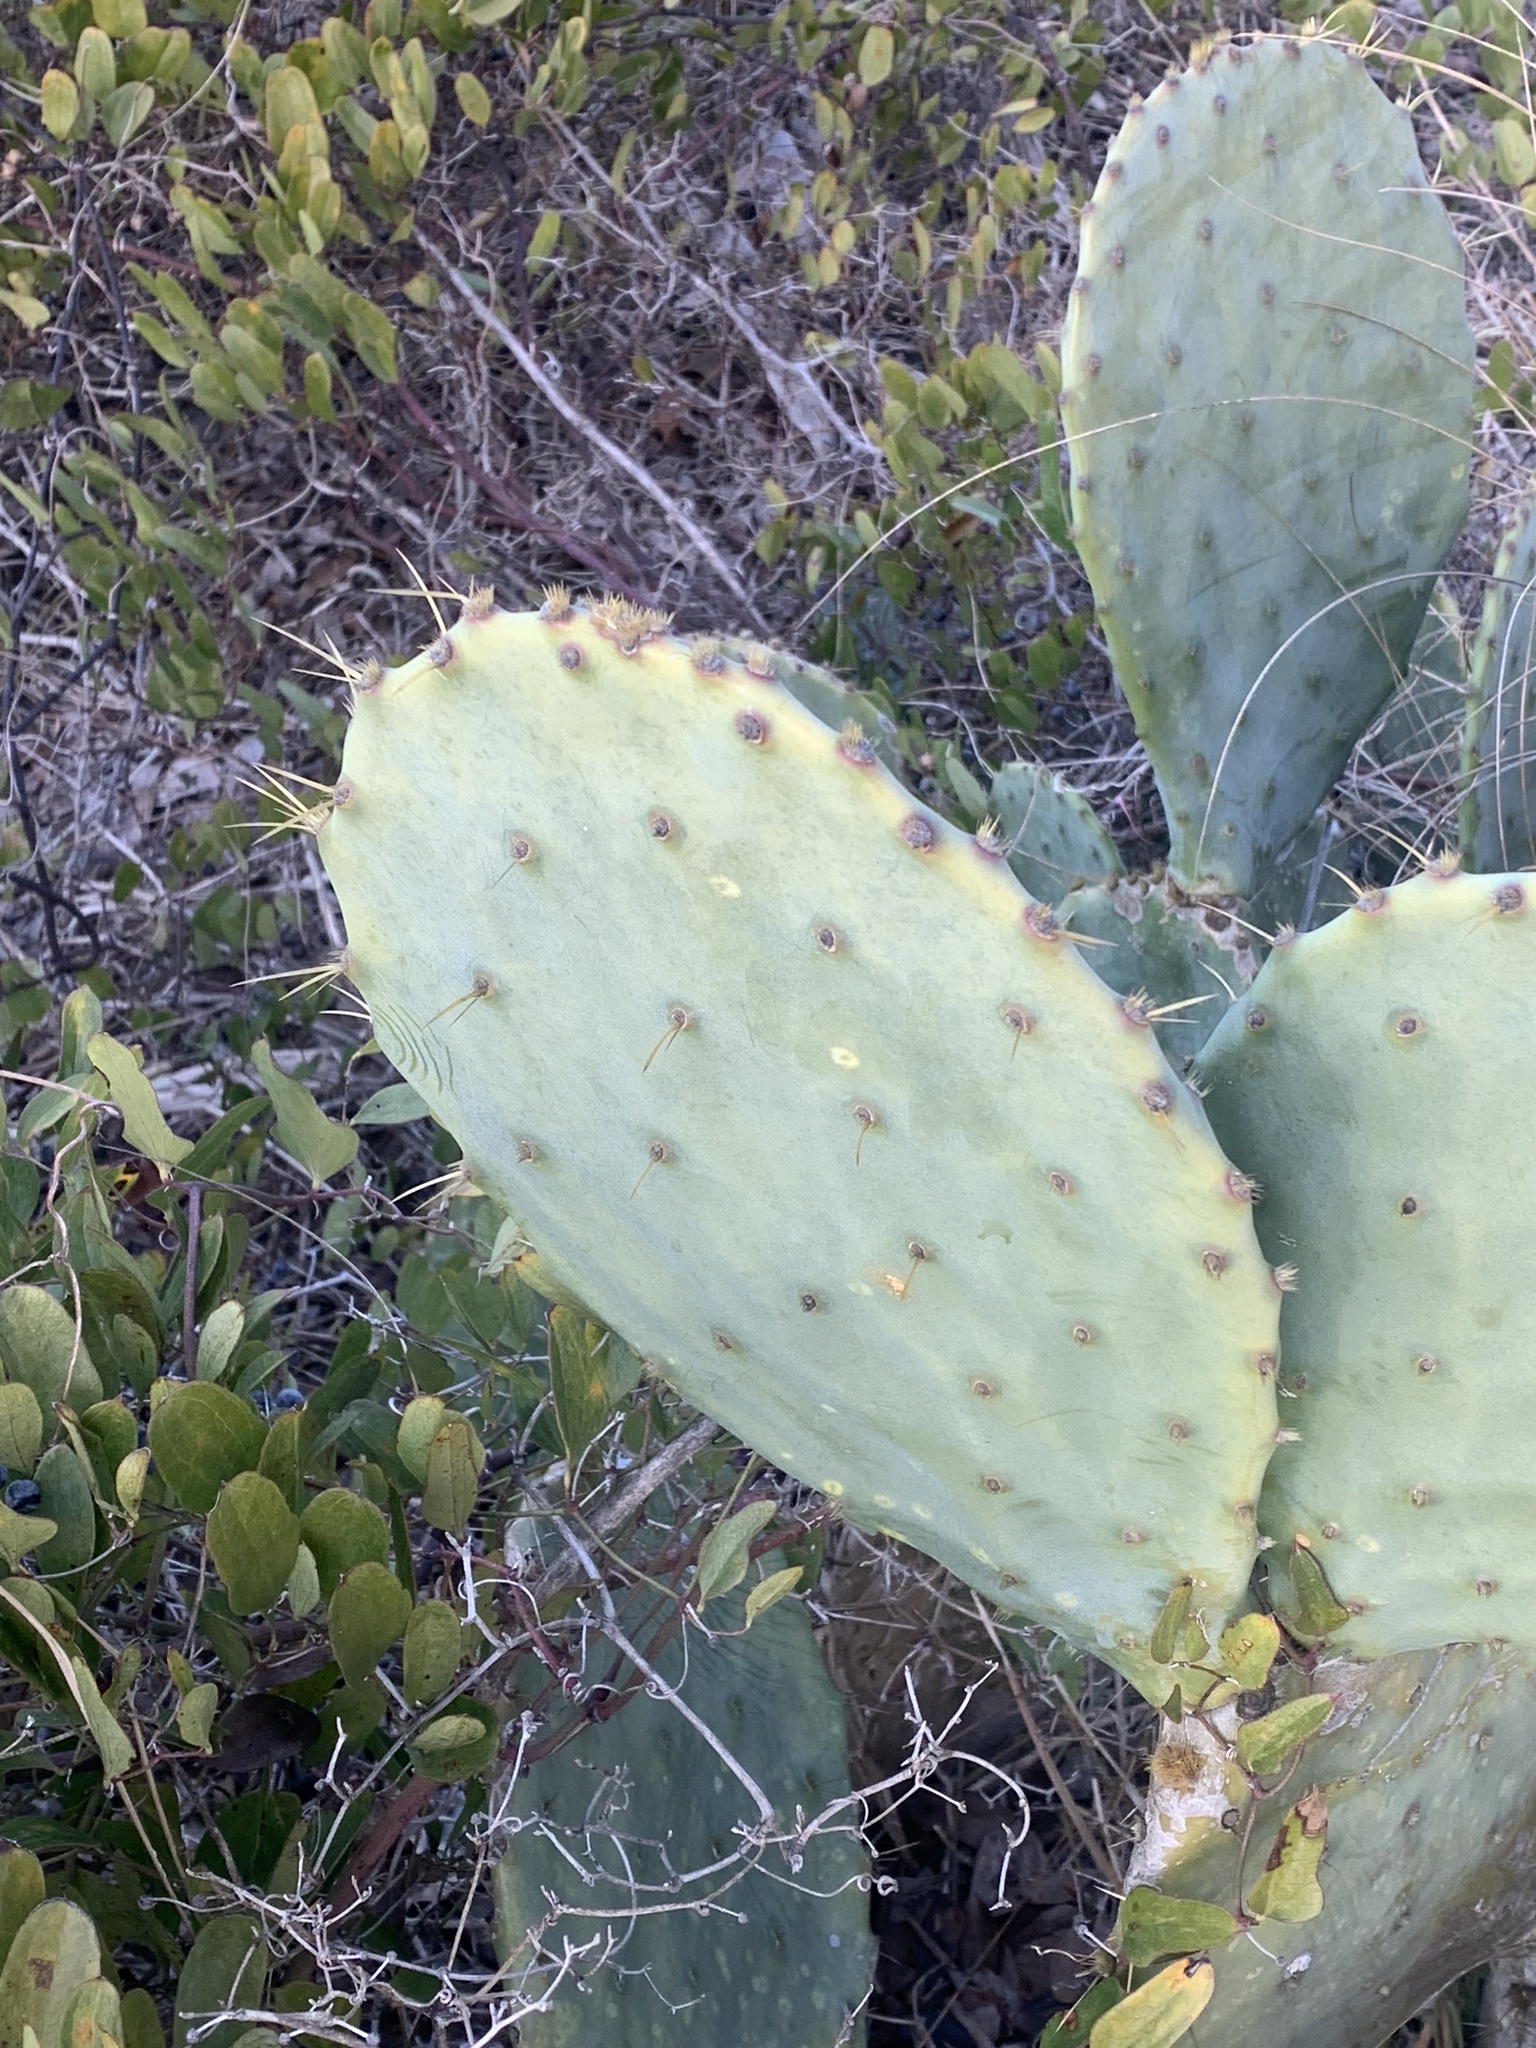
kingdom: Plantae
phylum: Tracheophyta
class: Magnoliopsida
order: Caryophyllales
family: Cactaceae
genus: Opuntia
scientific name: Opuntia tunoidea
